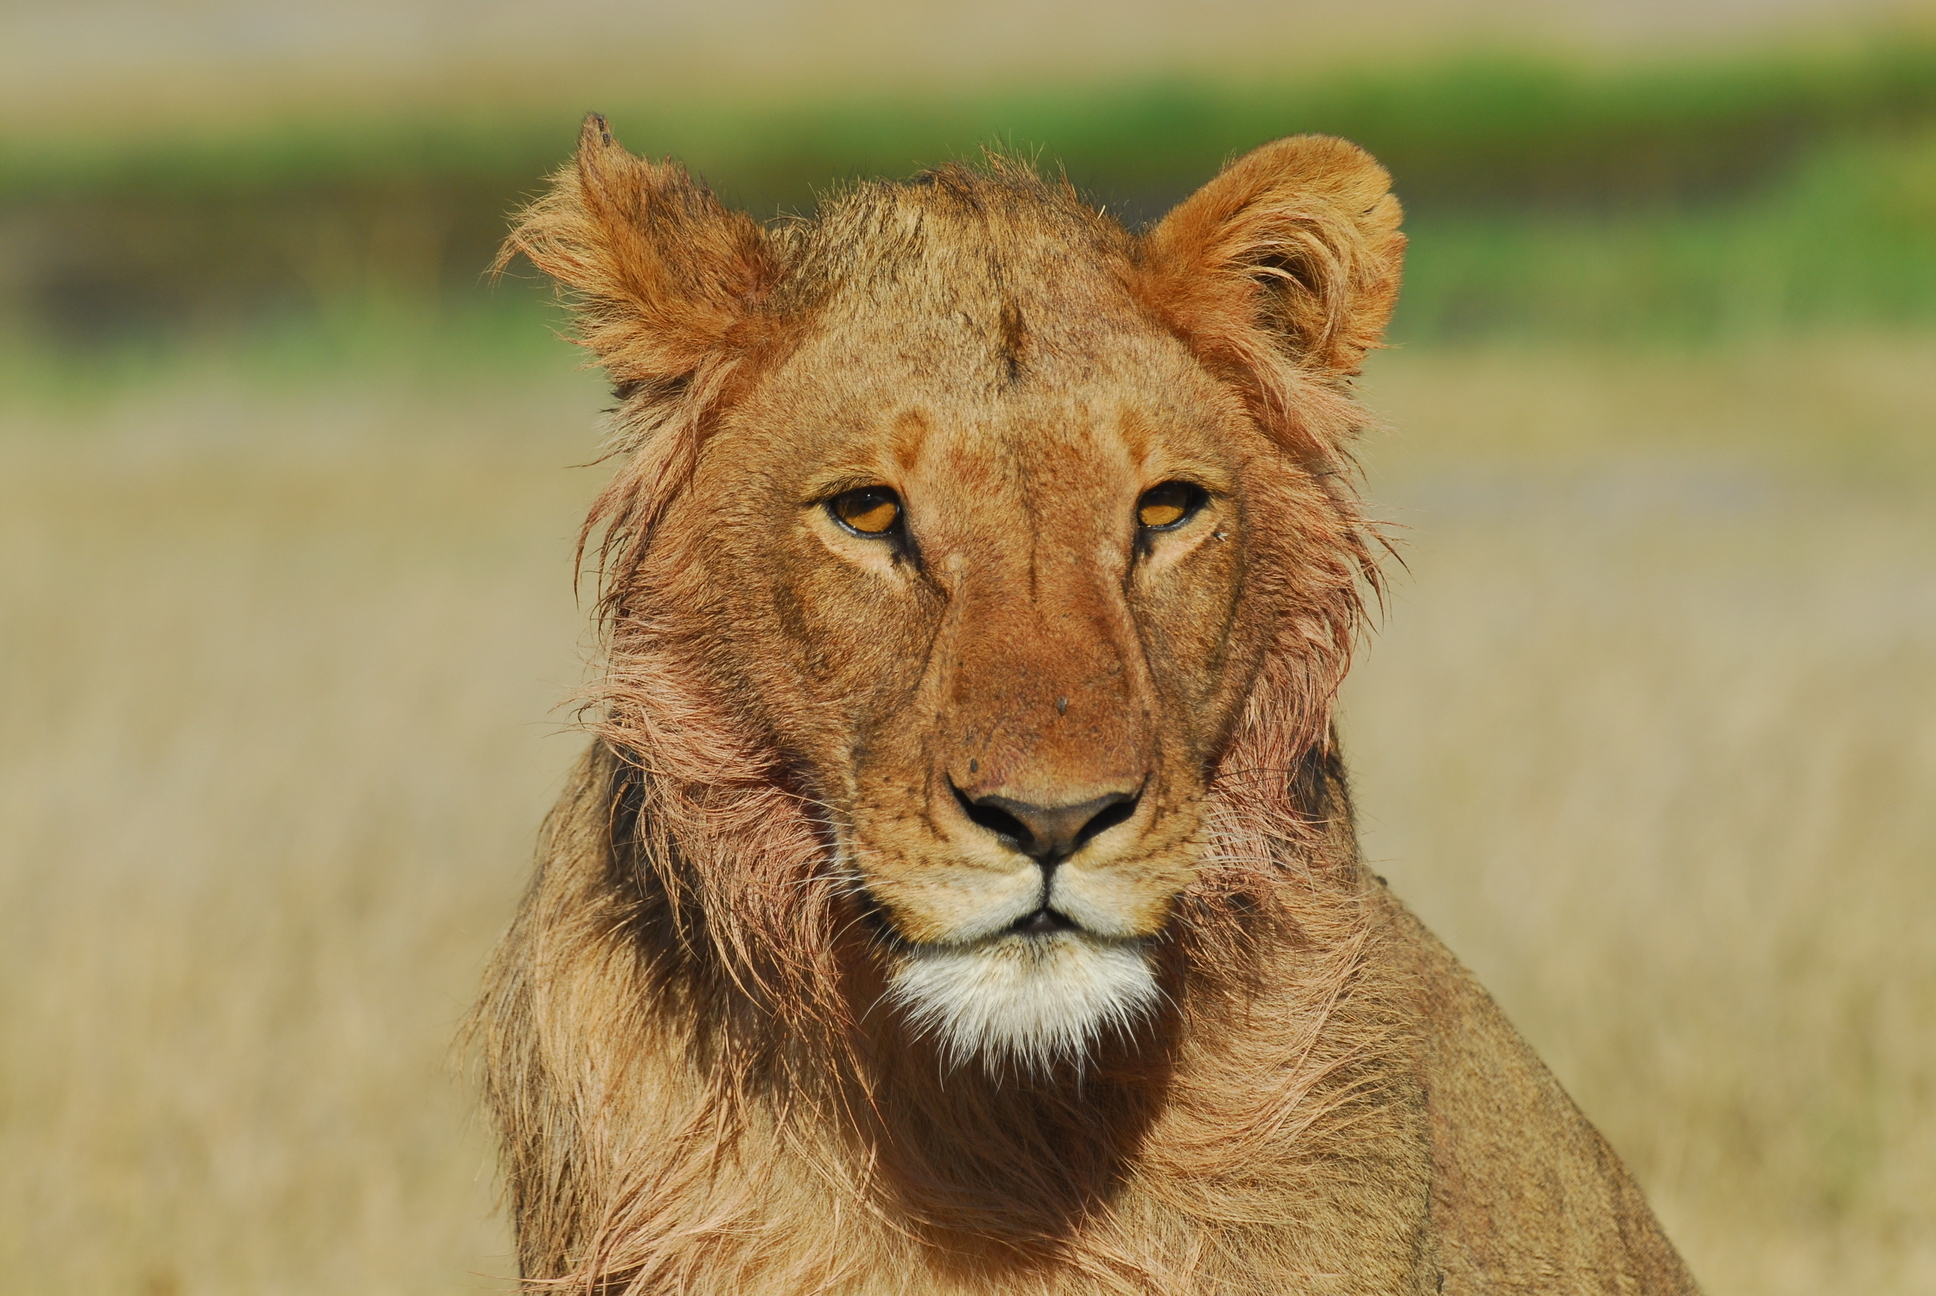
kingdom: Animalia
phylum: Chordata
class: Mammalia
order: Carnivora
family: Felidae
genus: Panthera
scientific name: Panthera leo
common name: Lion
